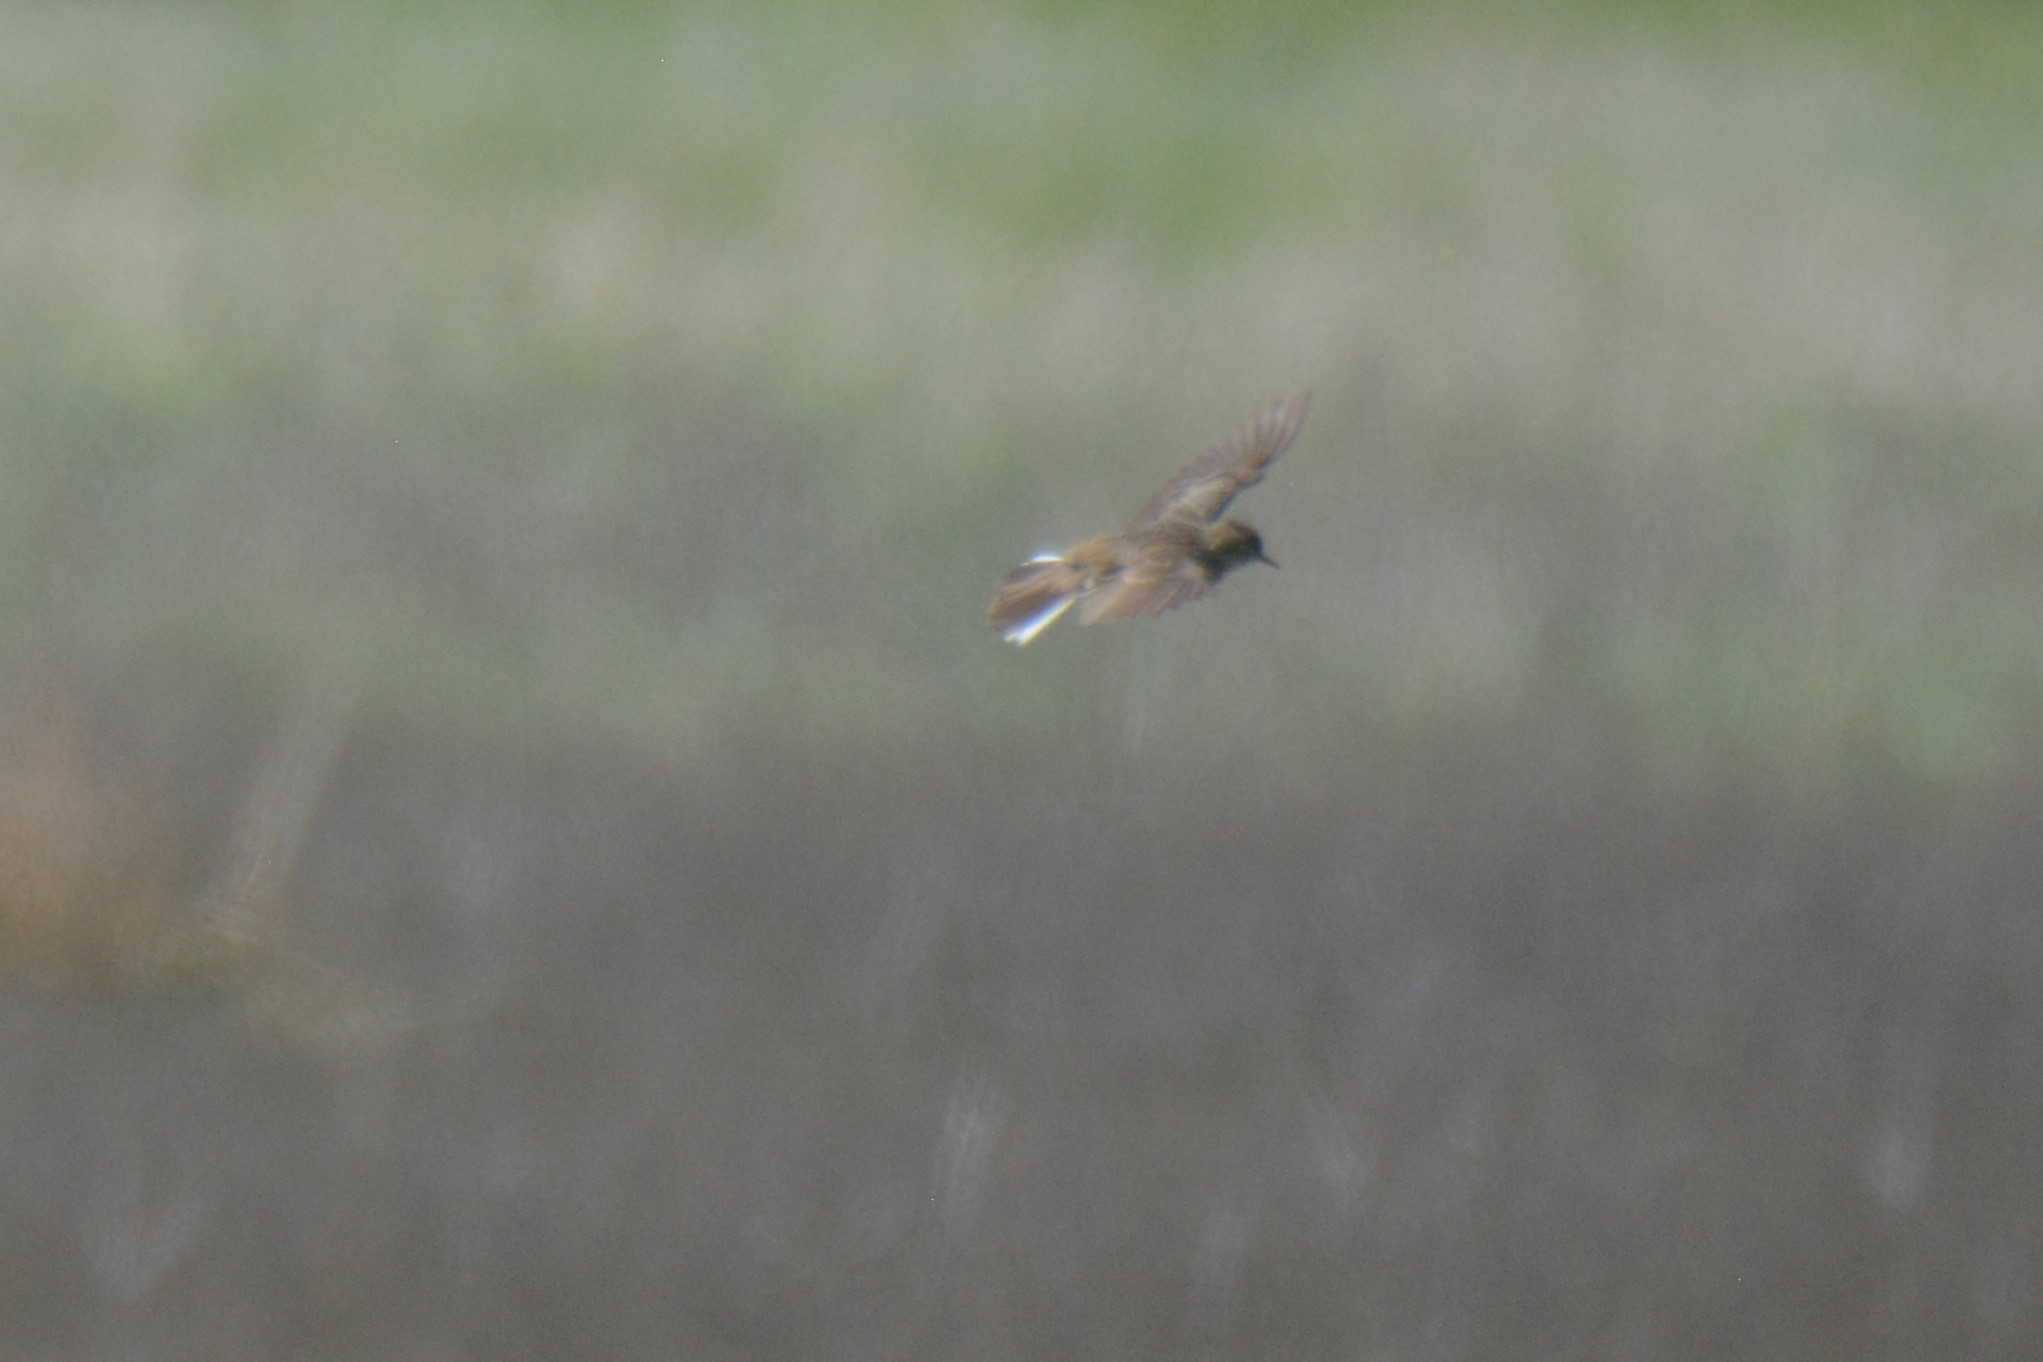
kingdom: Animalia
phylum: Chordata
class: Aves
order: Passeriformes
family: Motacillidae
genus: Anthus
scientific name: Anthus pratensis
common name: Meadow pipit
